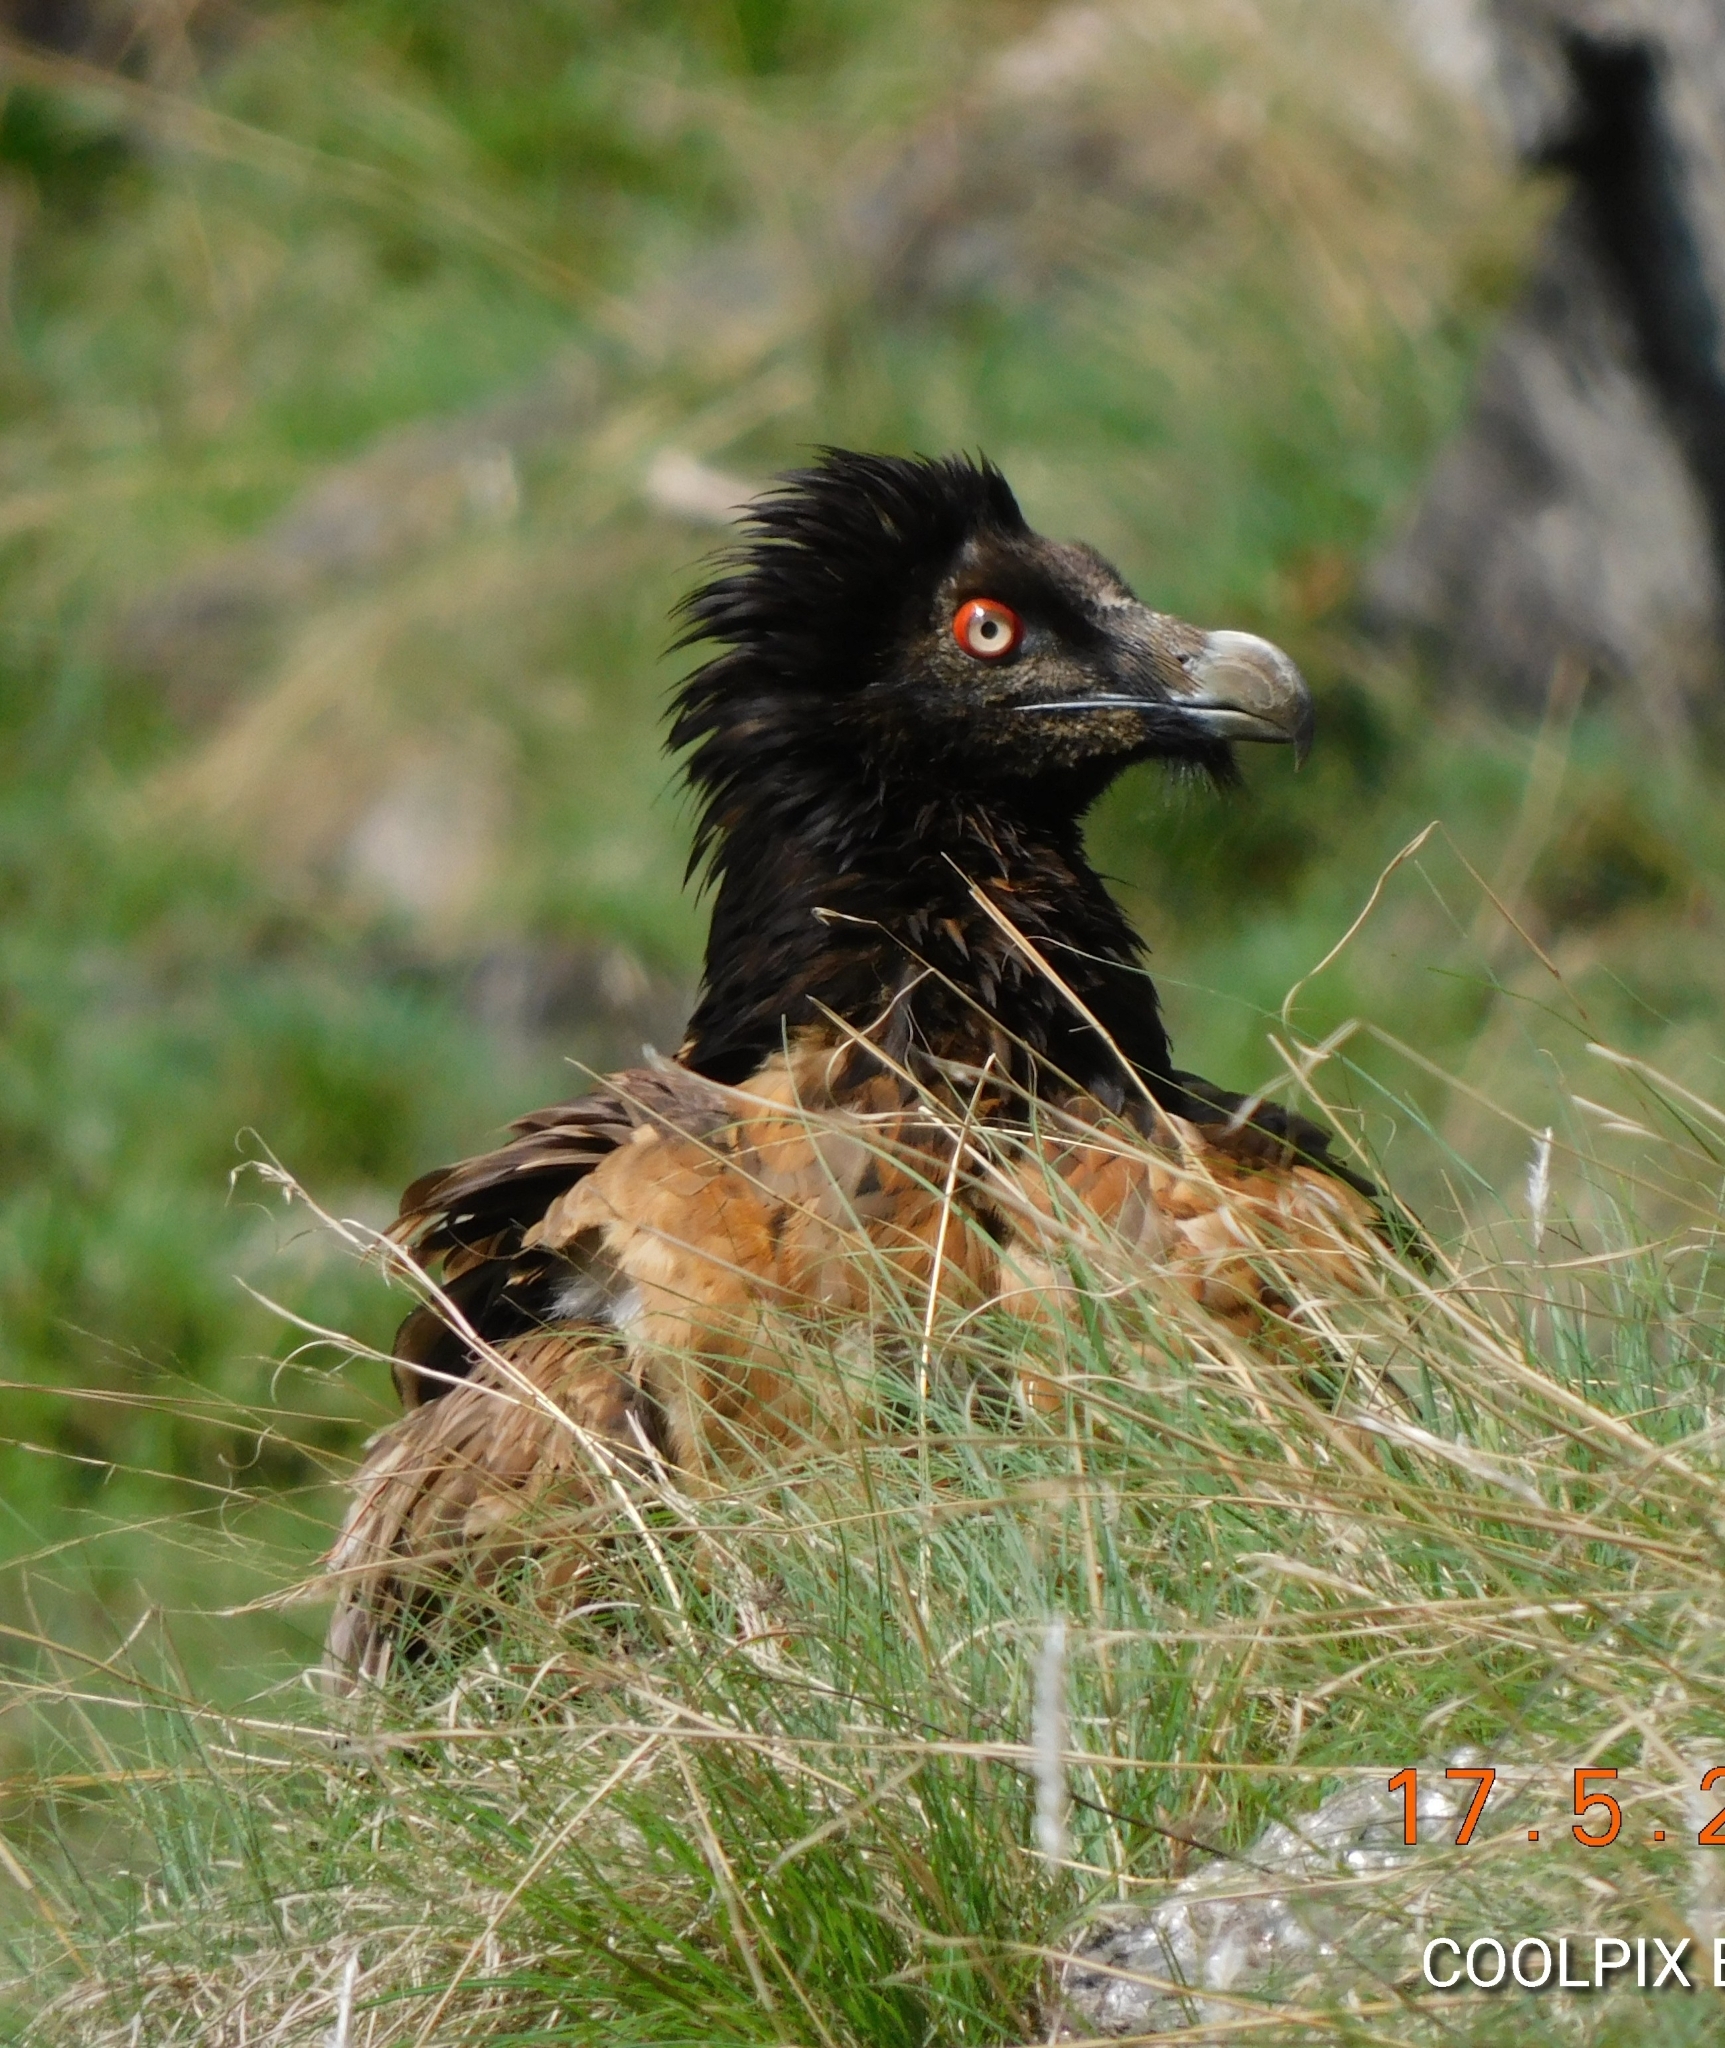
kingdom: Animalia
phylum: Chordata
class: Aves
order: Accipitriformes
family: Accipitridae
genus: Gypaetus
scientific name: Gypaetus barbatus
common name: Bearded vulture
